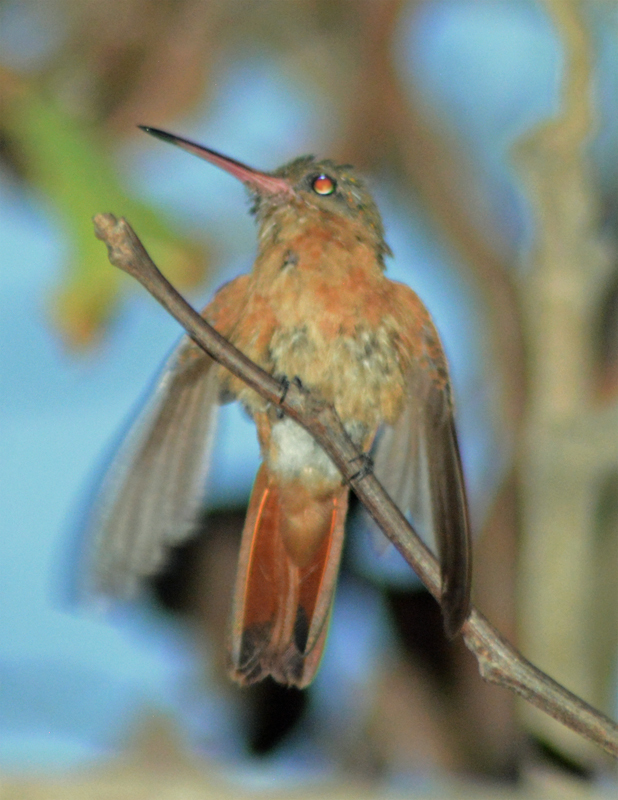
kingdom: Animalia
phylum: Chordata
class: Aves
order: Apodiformes
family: Trochilidae
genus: Amazilia
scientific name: Amazilia rutila
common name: Cinnamon hummingbird
